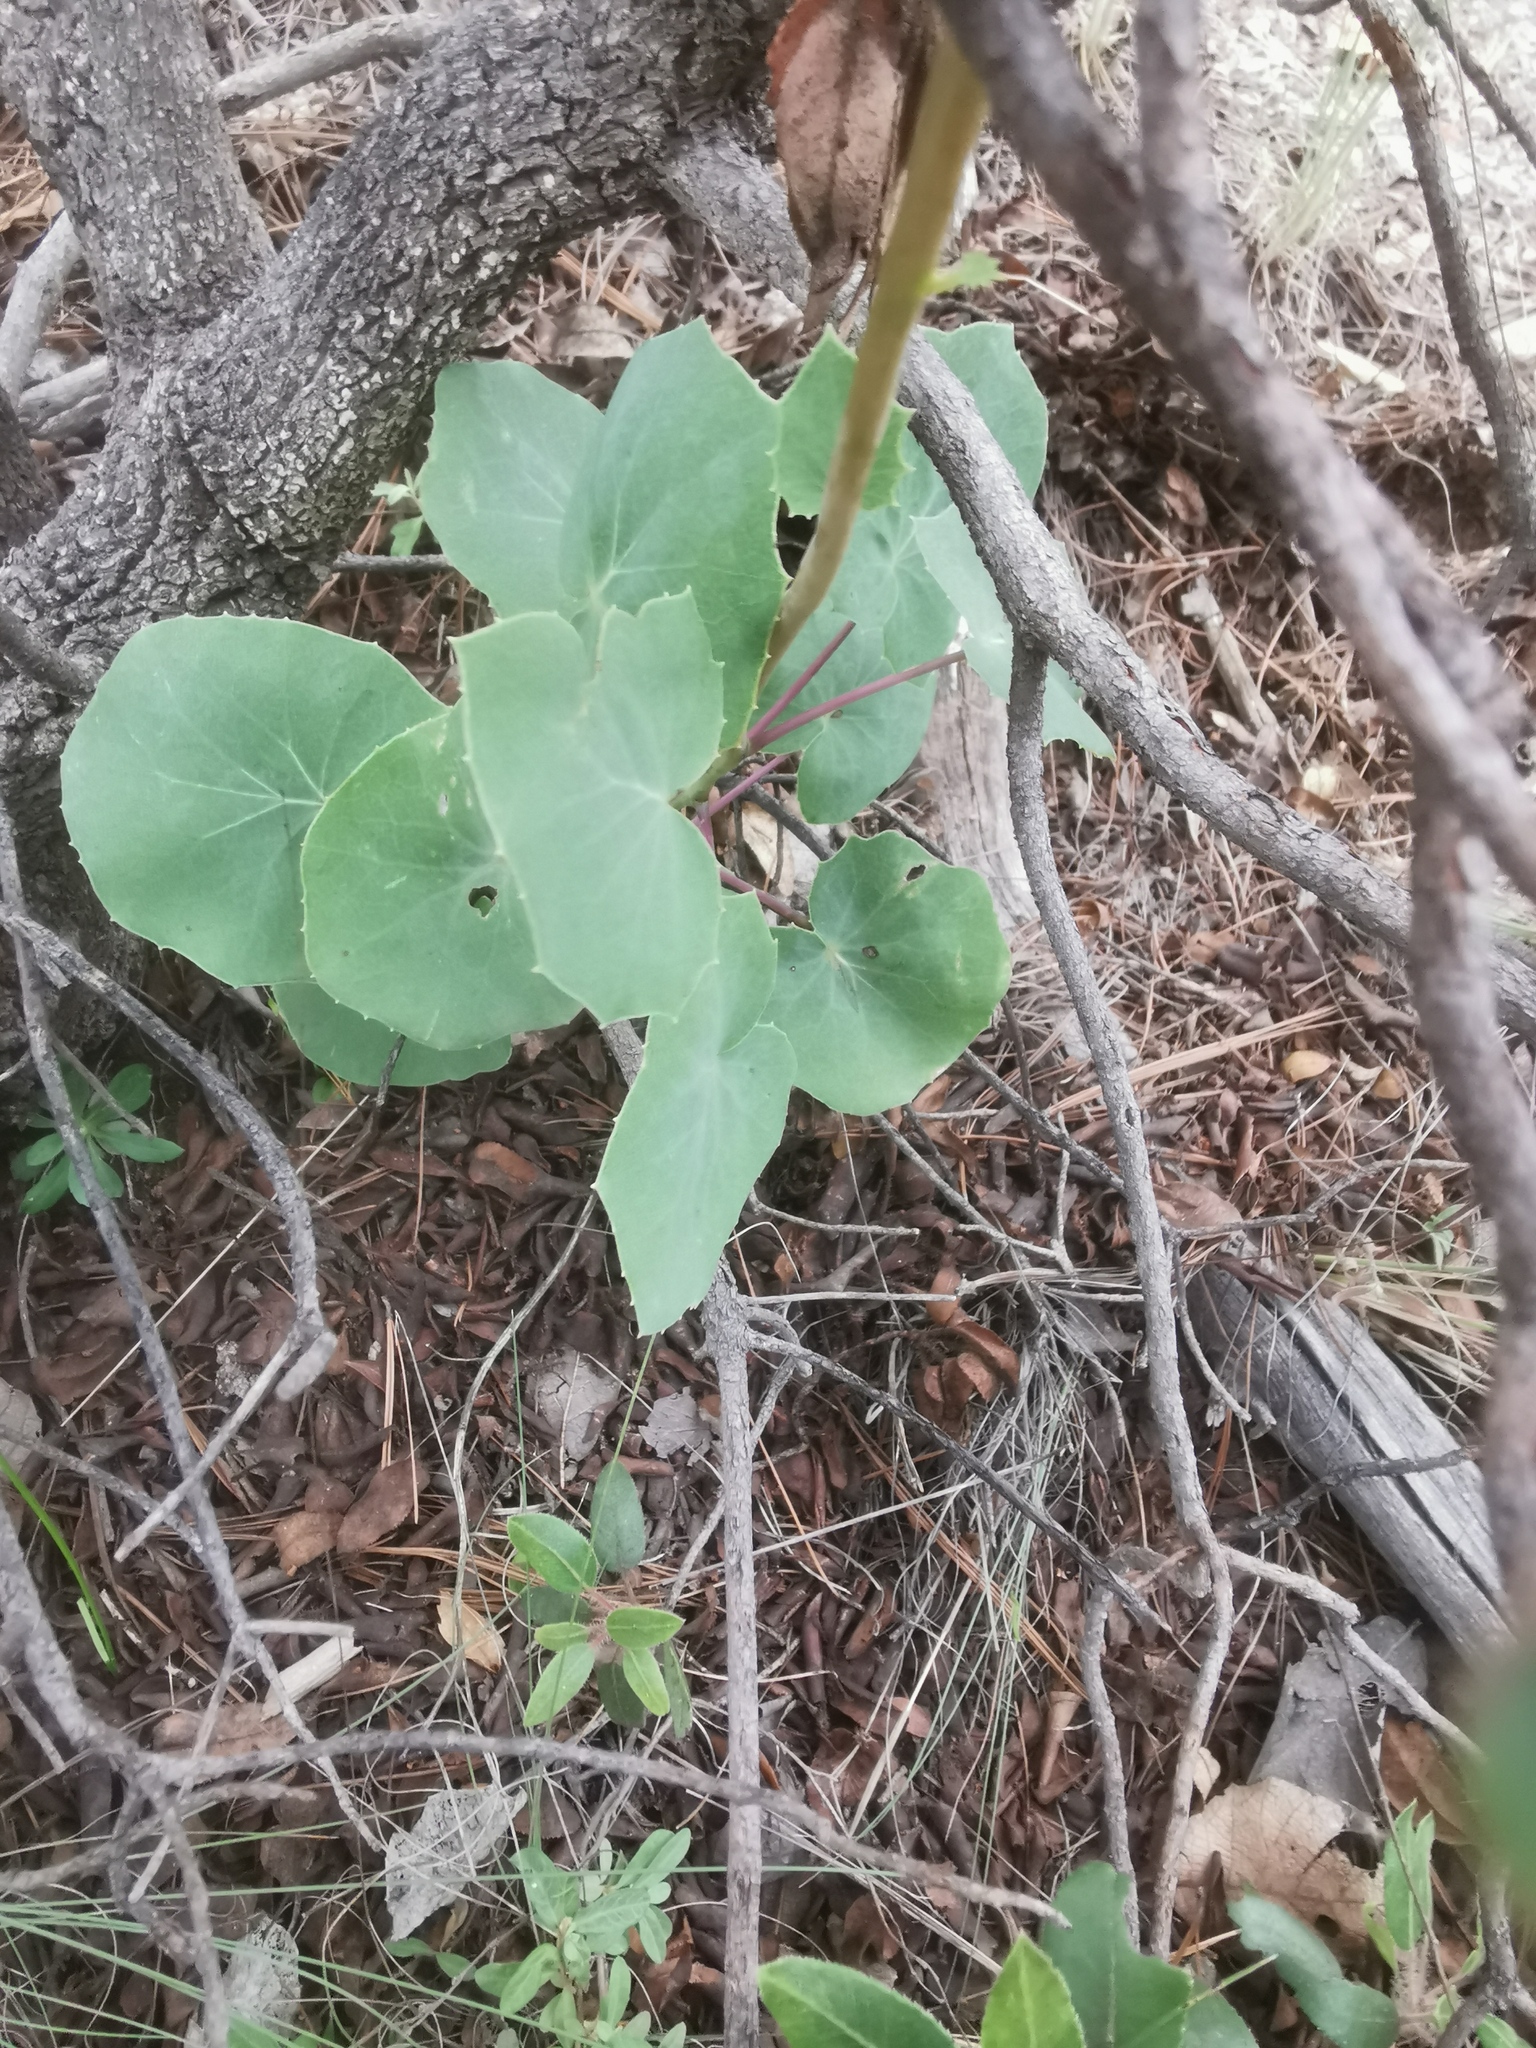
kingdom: Plantae
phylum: Tracheophyta
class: Magnoliopsida
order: Asterales
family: Asteraceae
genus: Roldana
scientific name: Roldana sessilifolia
